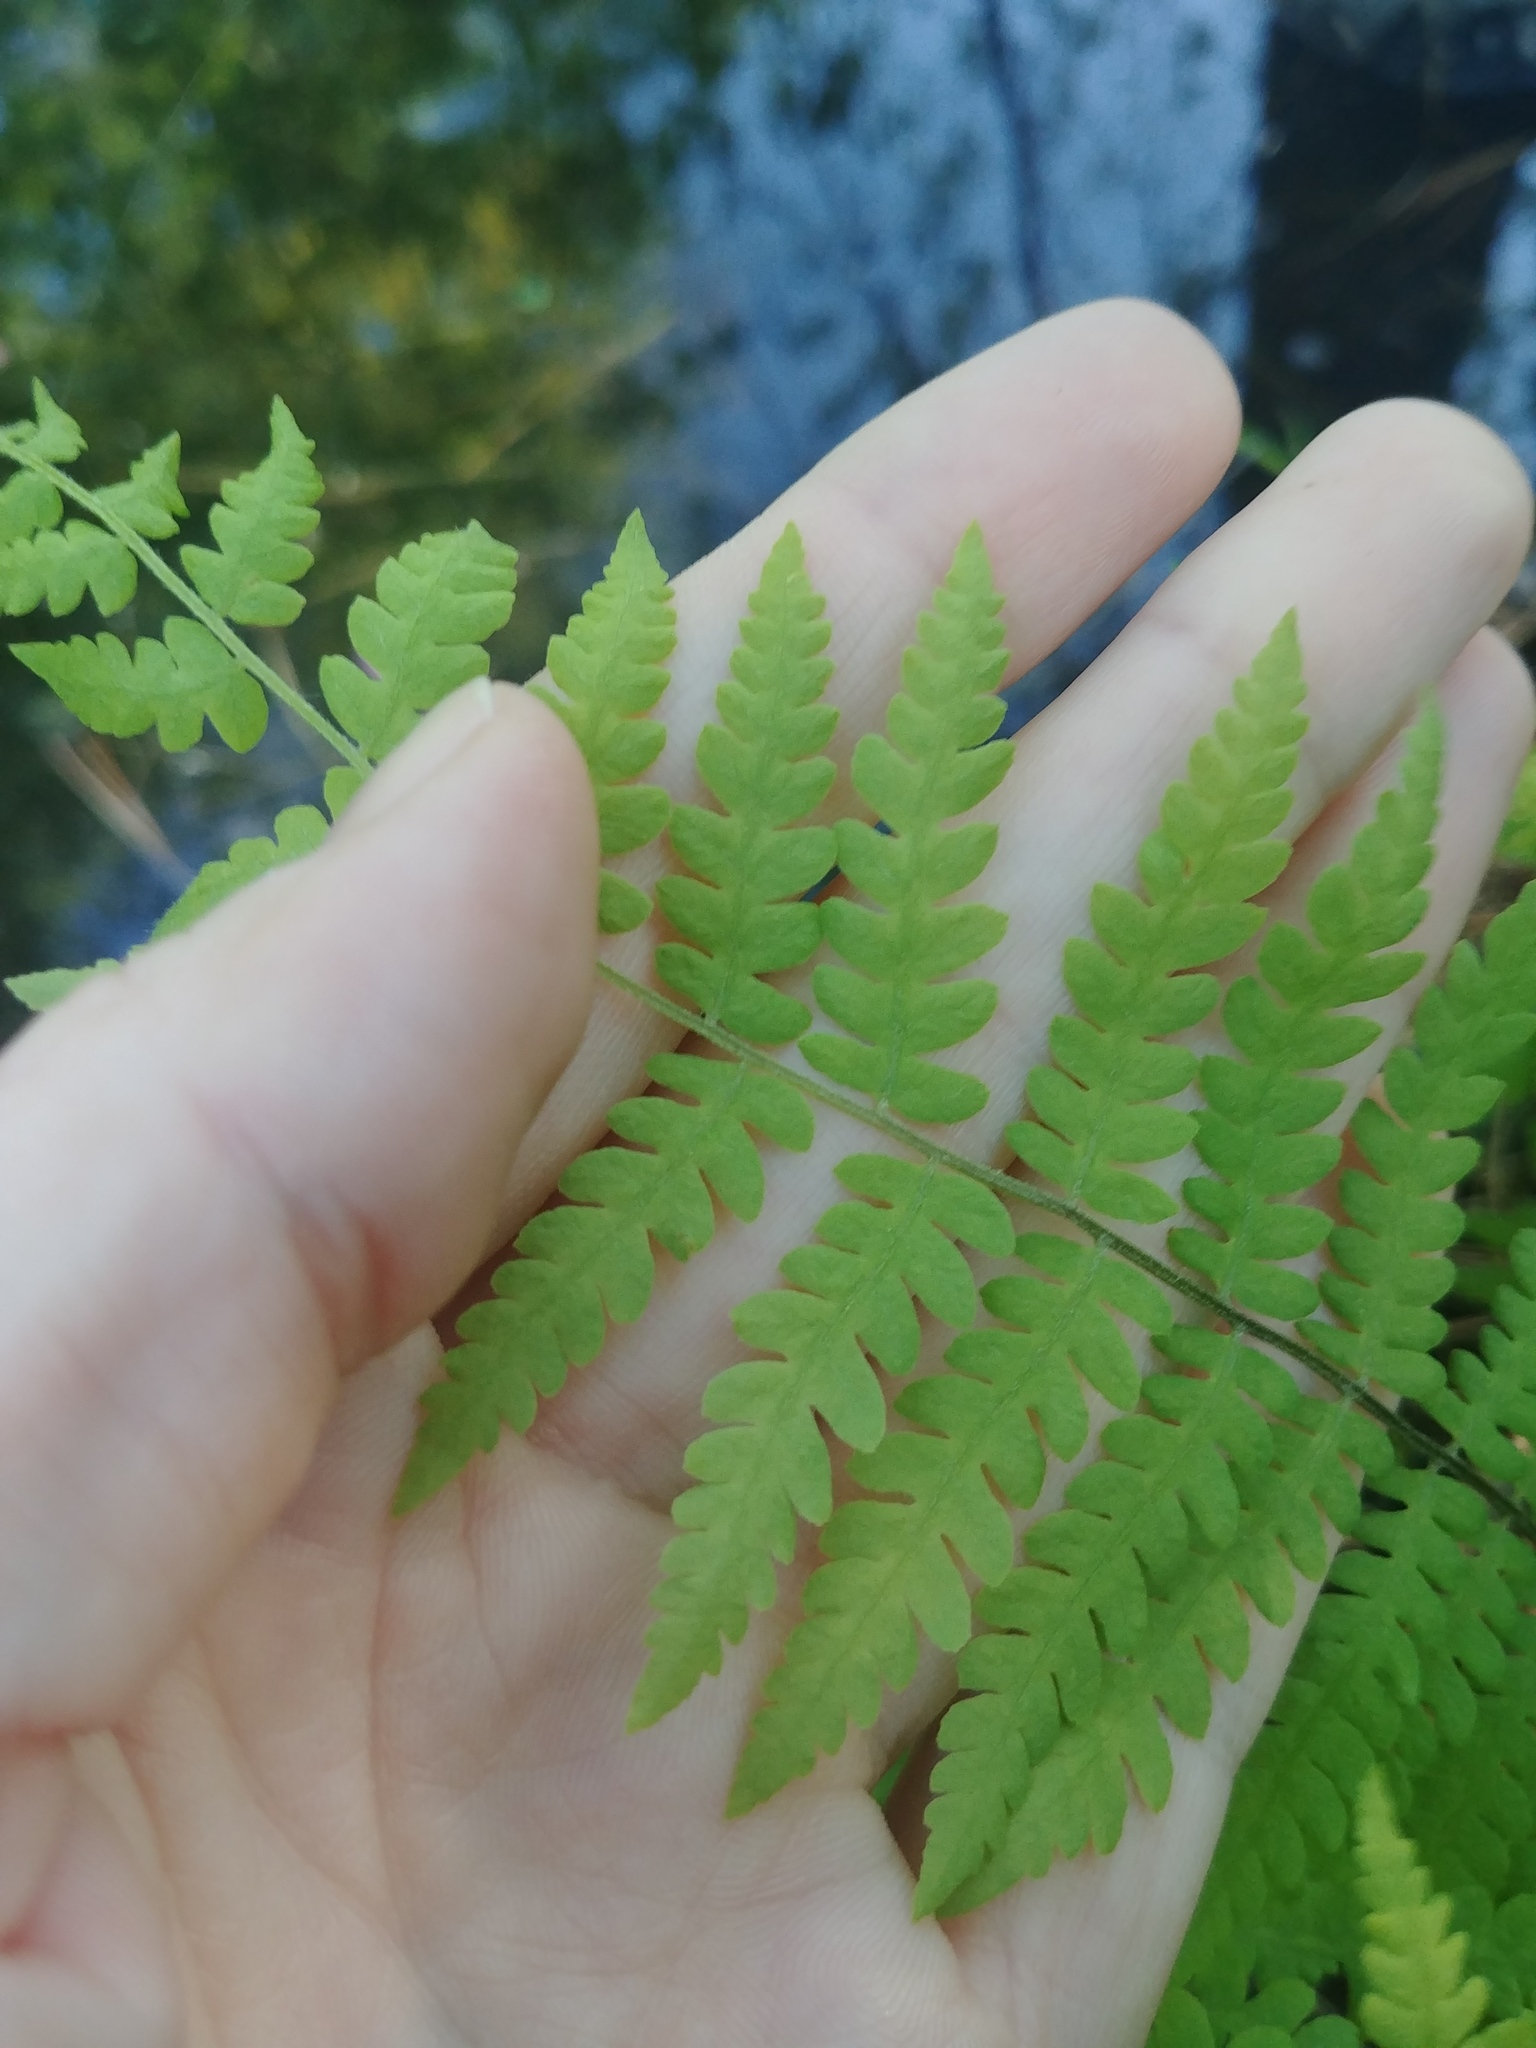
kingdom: Plantae
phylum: Tracheophyta
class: Polypodiopsida
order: Polypodiales
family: Thelypteridaceae
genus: Thelypteris
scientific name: Thelypteris palustris
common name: Marsh fern
